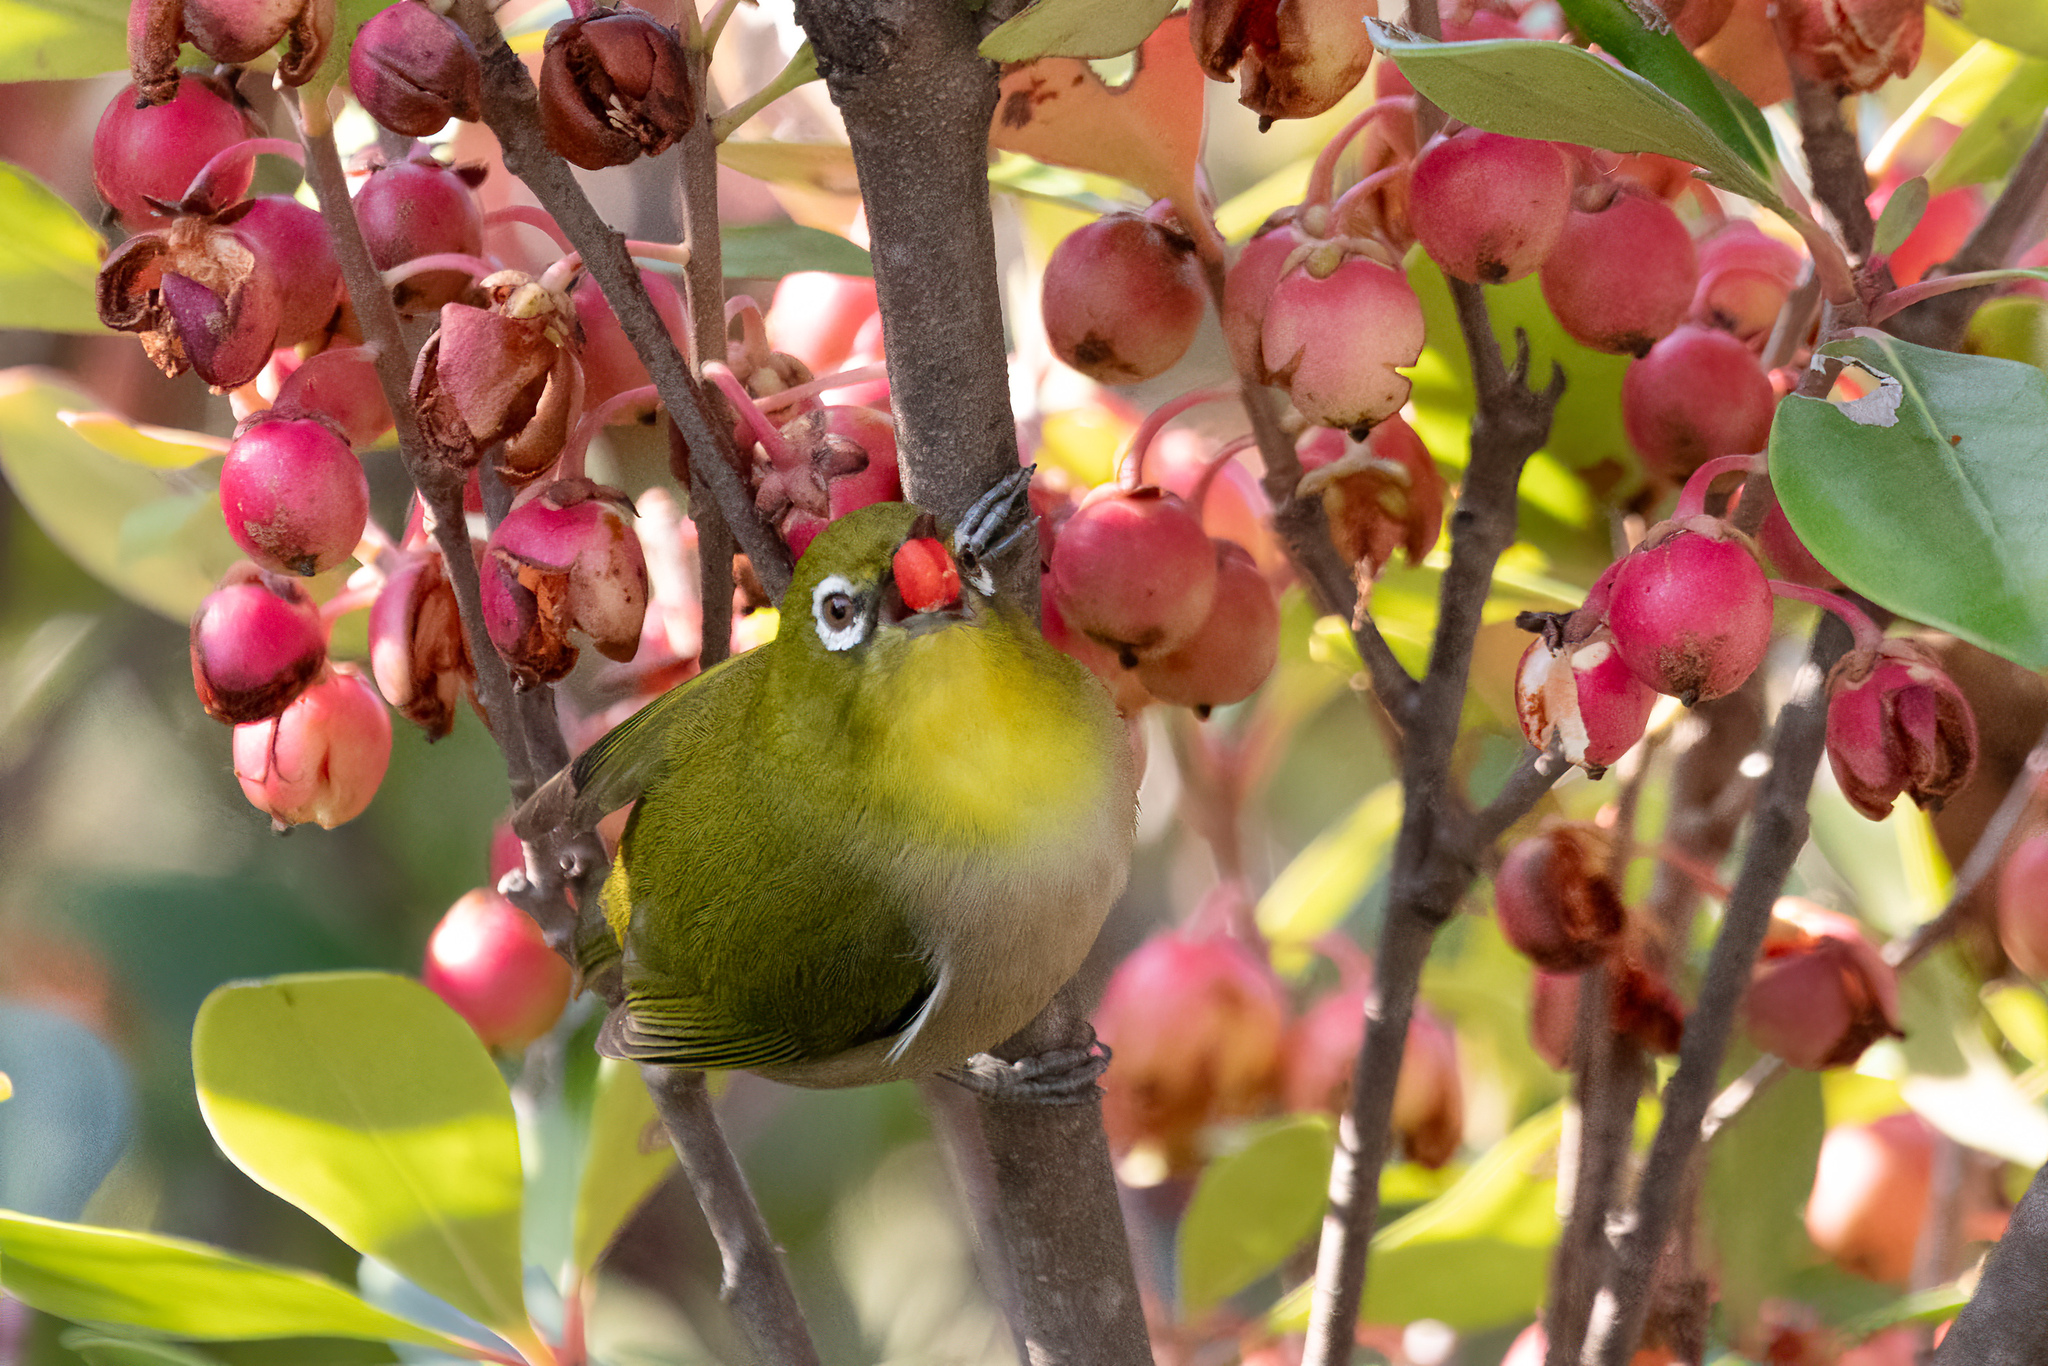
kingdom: Animalia
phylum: Chordata
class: Aves
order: Passeriformes
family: Zosteropidae
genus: Zosterops
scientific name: Zosterops japonicus
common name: Japanese white-eye
